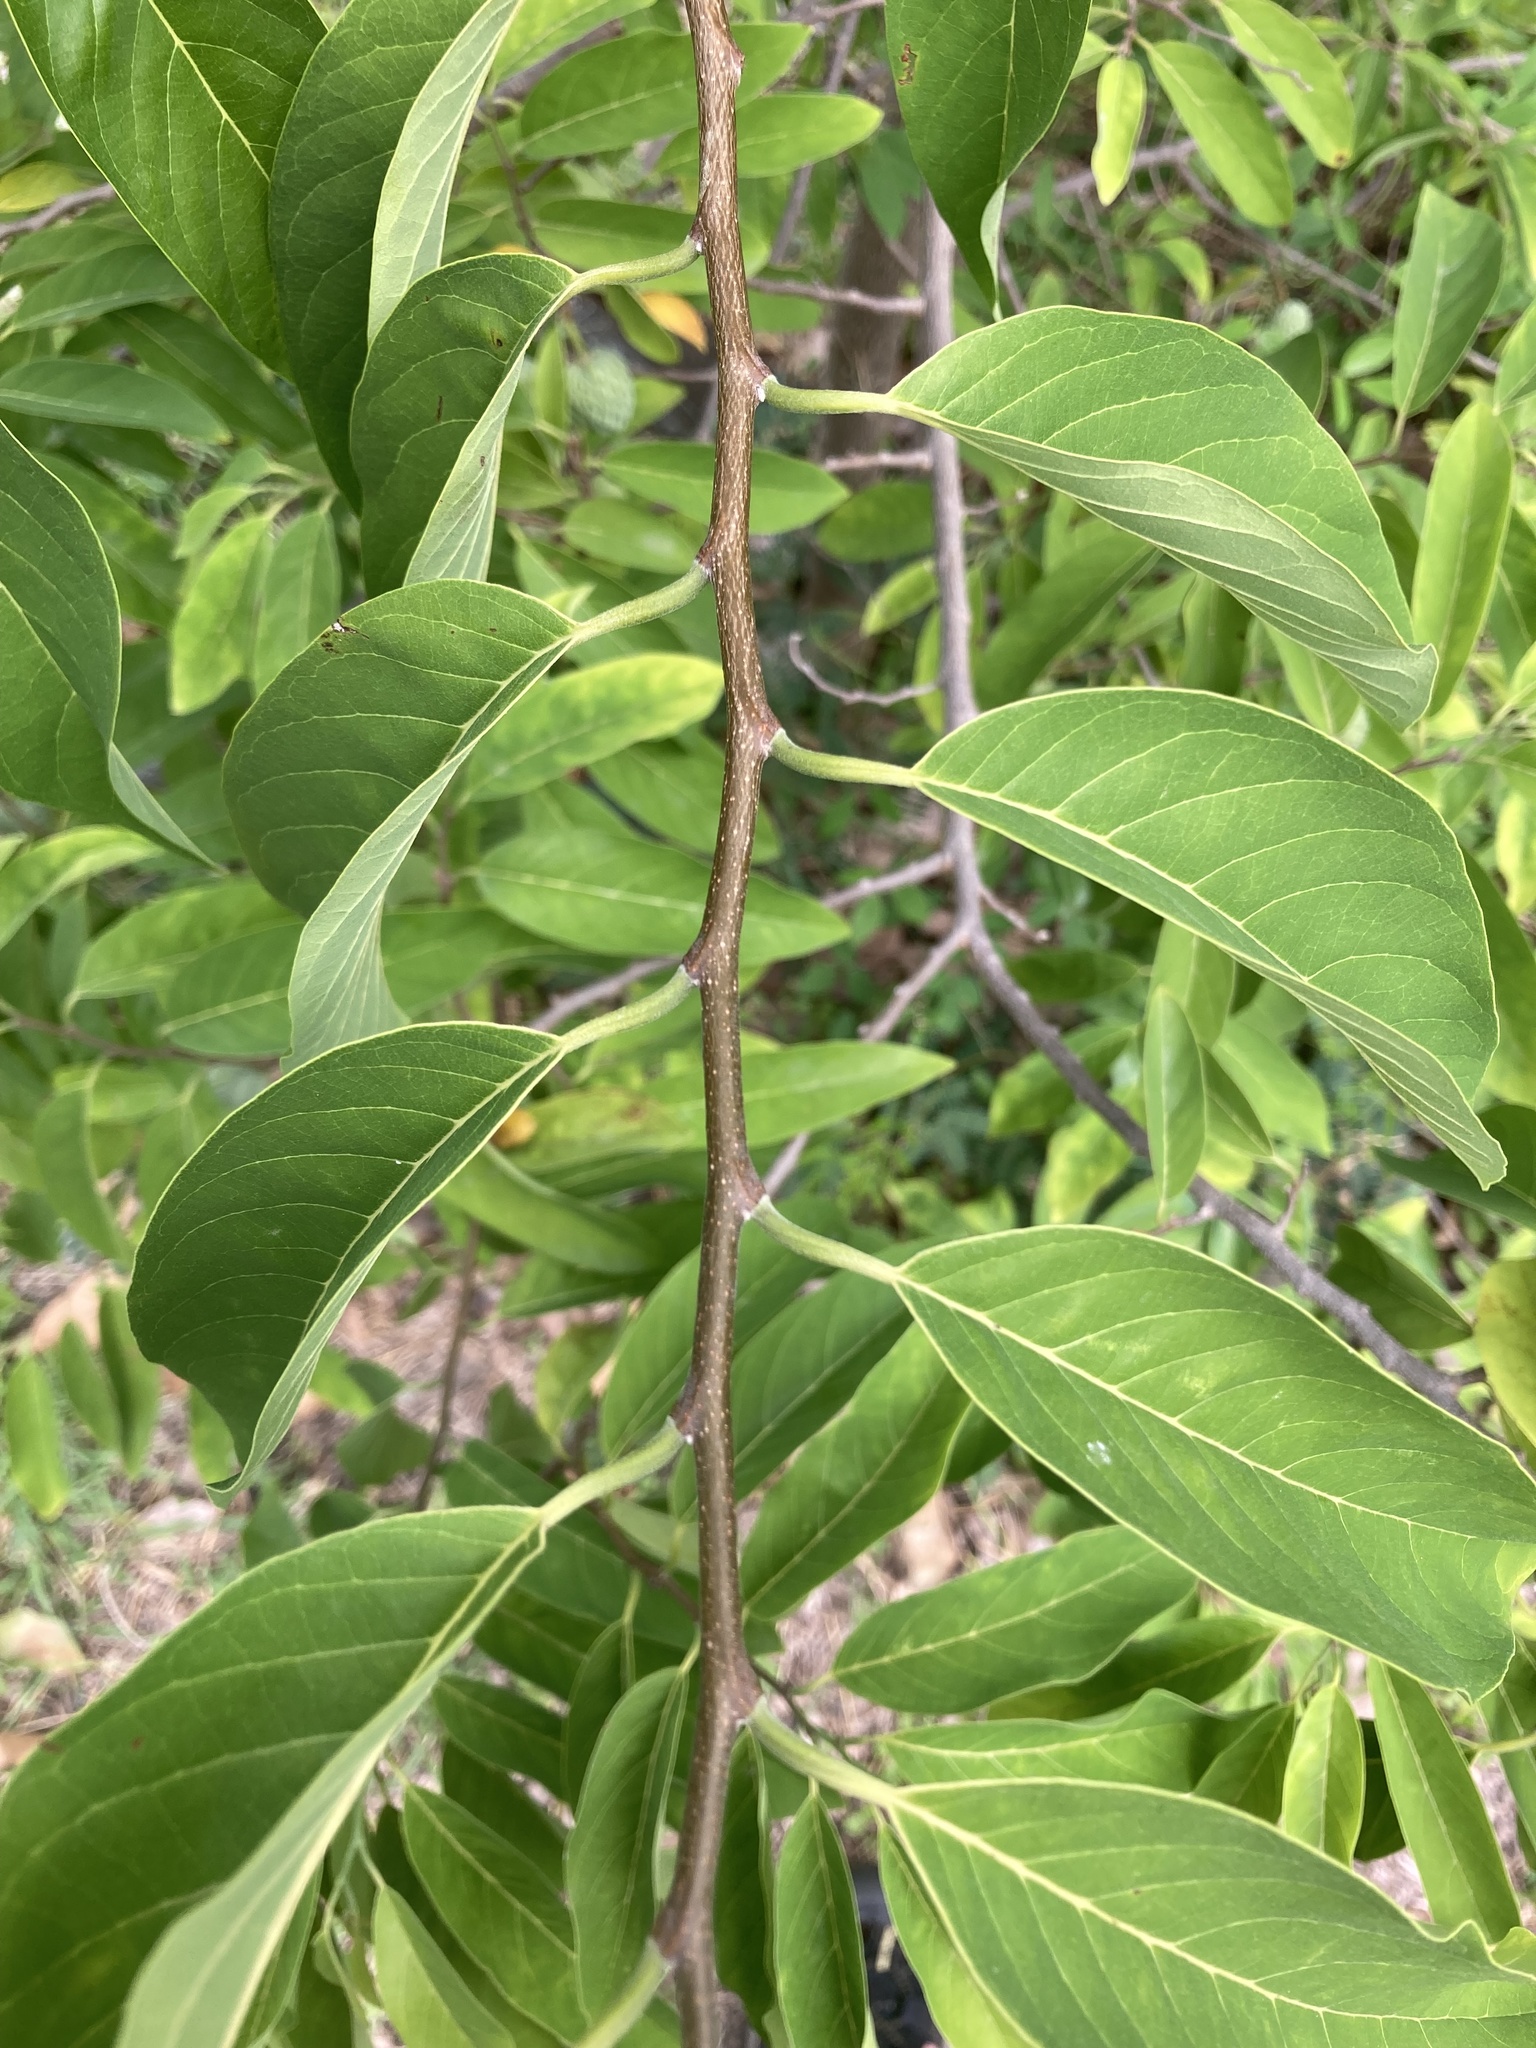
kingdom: Plantae
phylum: Tracheophyta
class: Magnoliopsida
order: Magnoliales
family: Annonaceae
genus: Annona
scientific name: Annona squamosa
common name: Custard-apple
